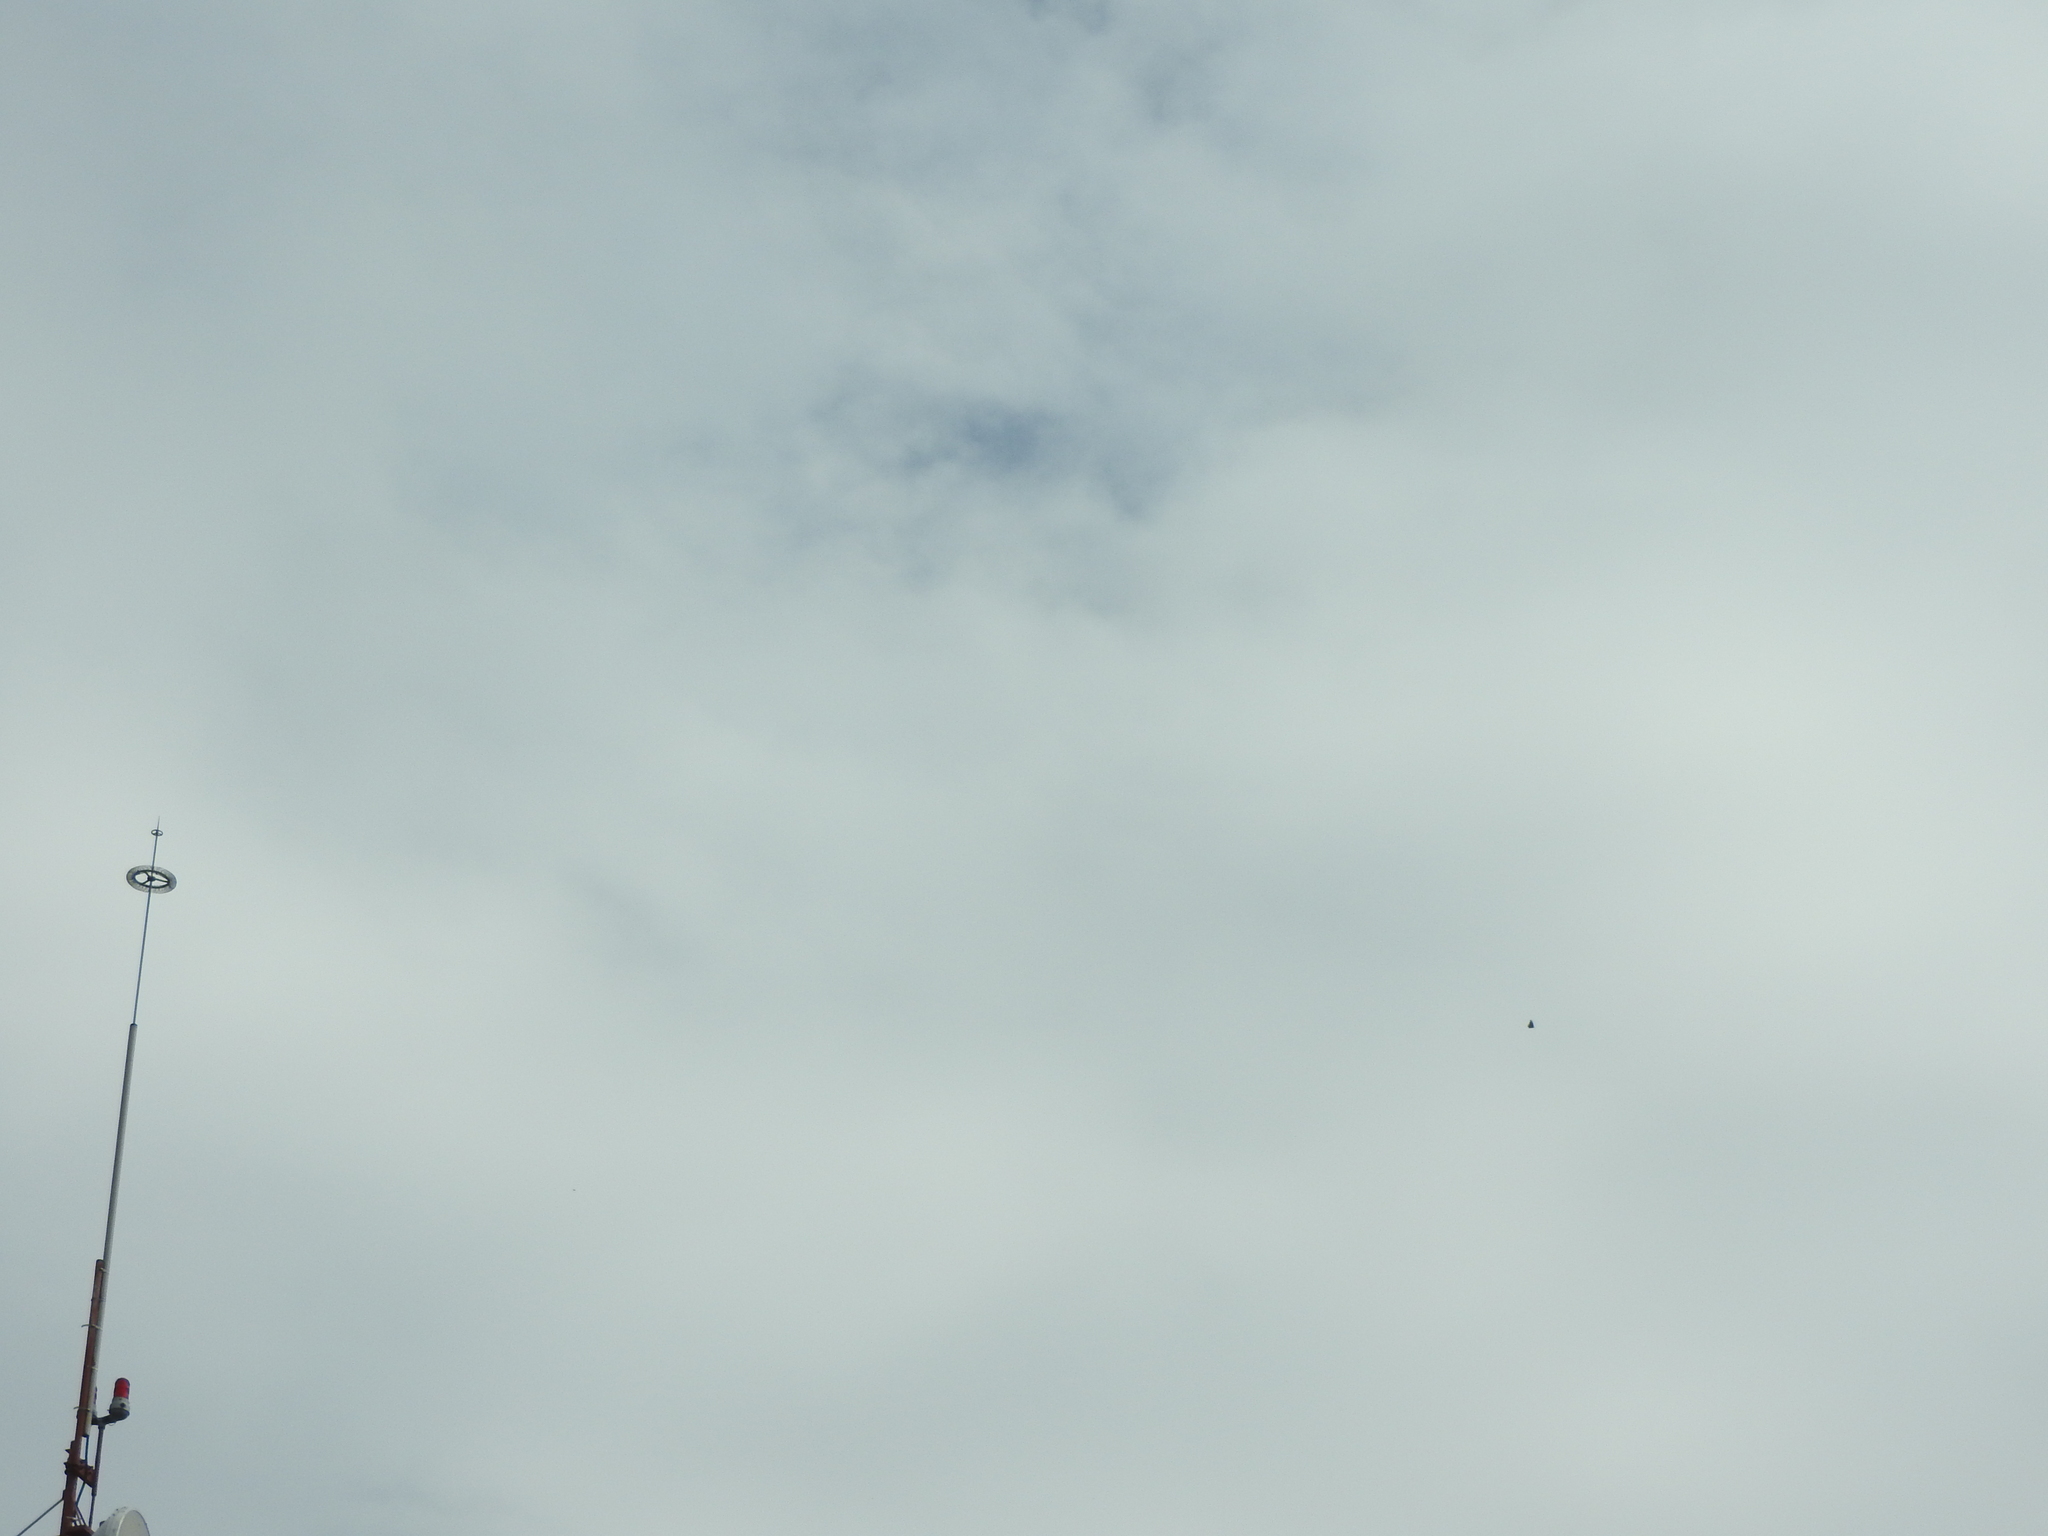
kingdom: Animalia
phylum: Arthropoda
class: Insecta
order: Lepidoptera
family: Nymphalidae
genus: Danaus
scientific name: Danaus plexippus
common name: Monarch
